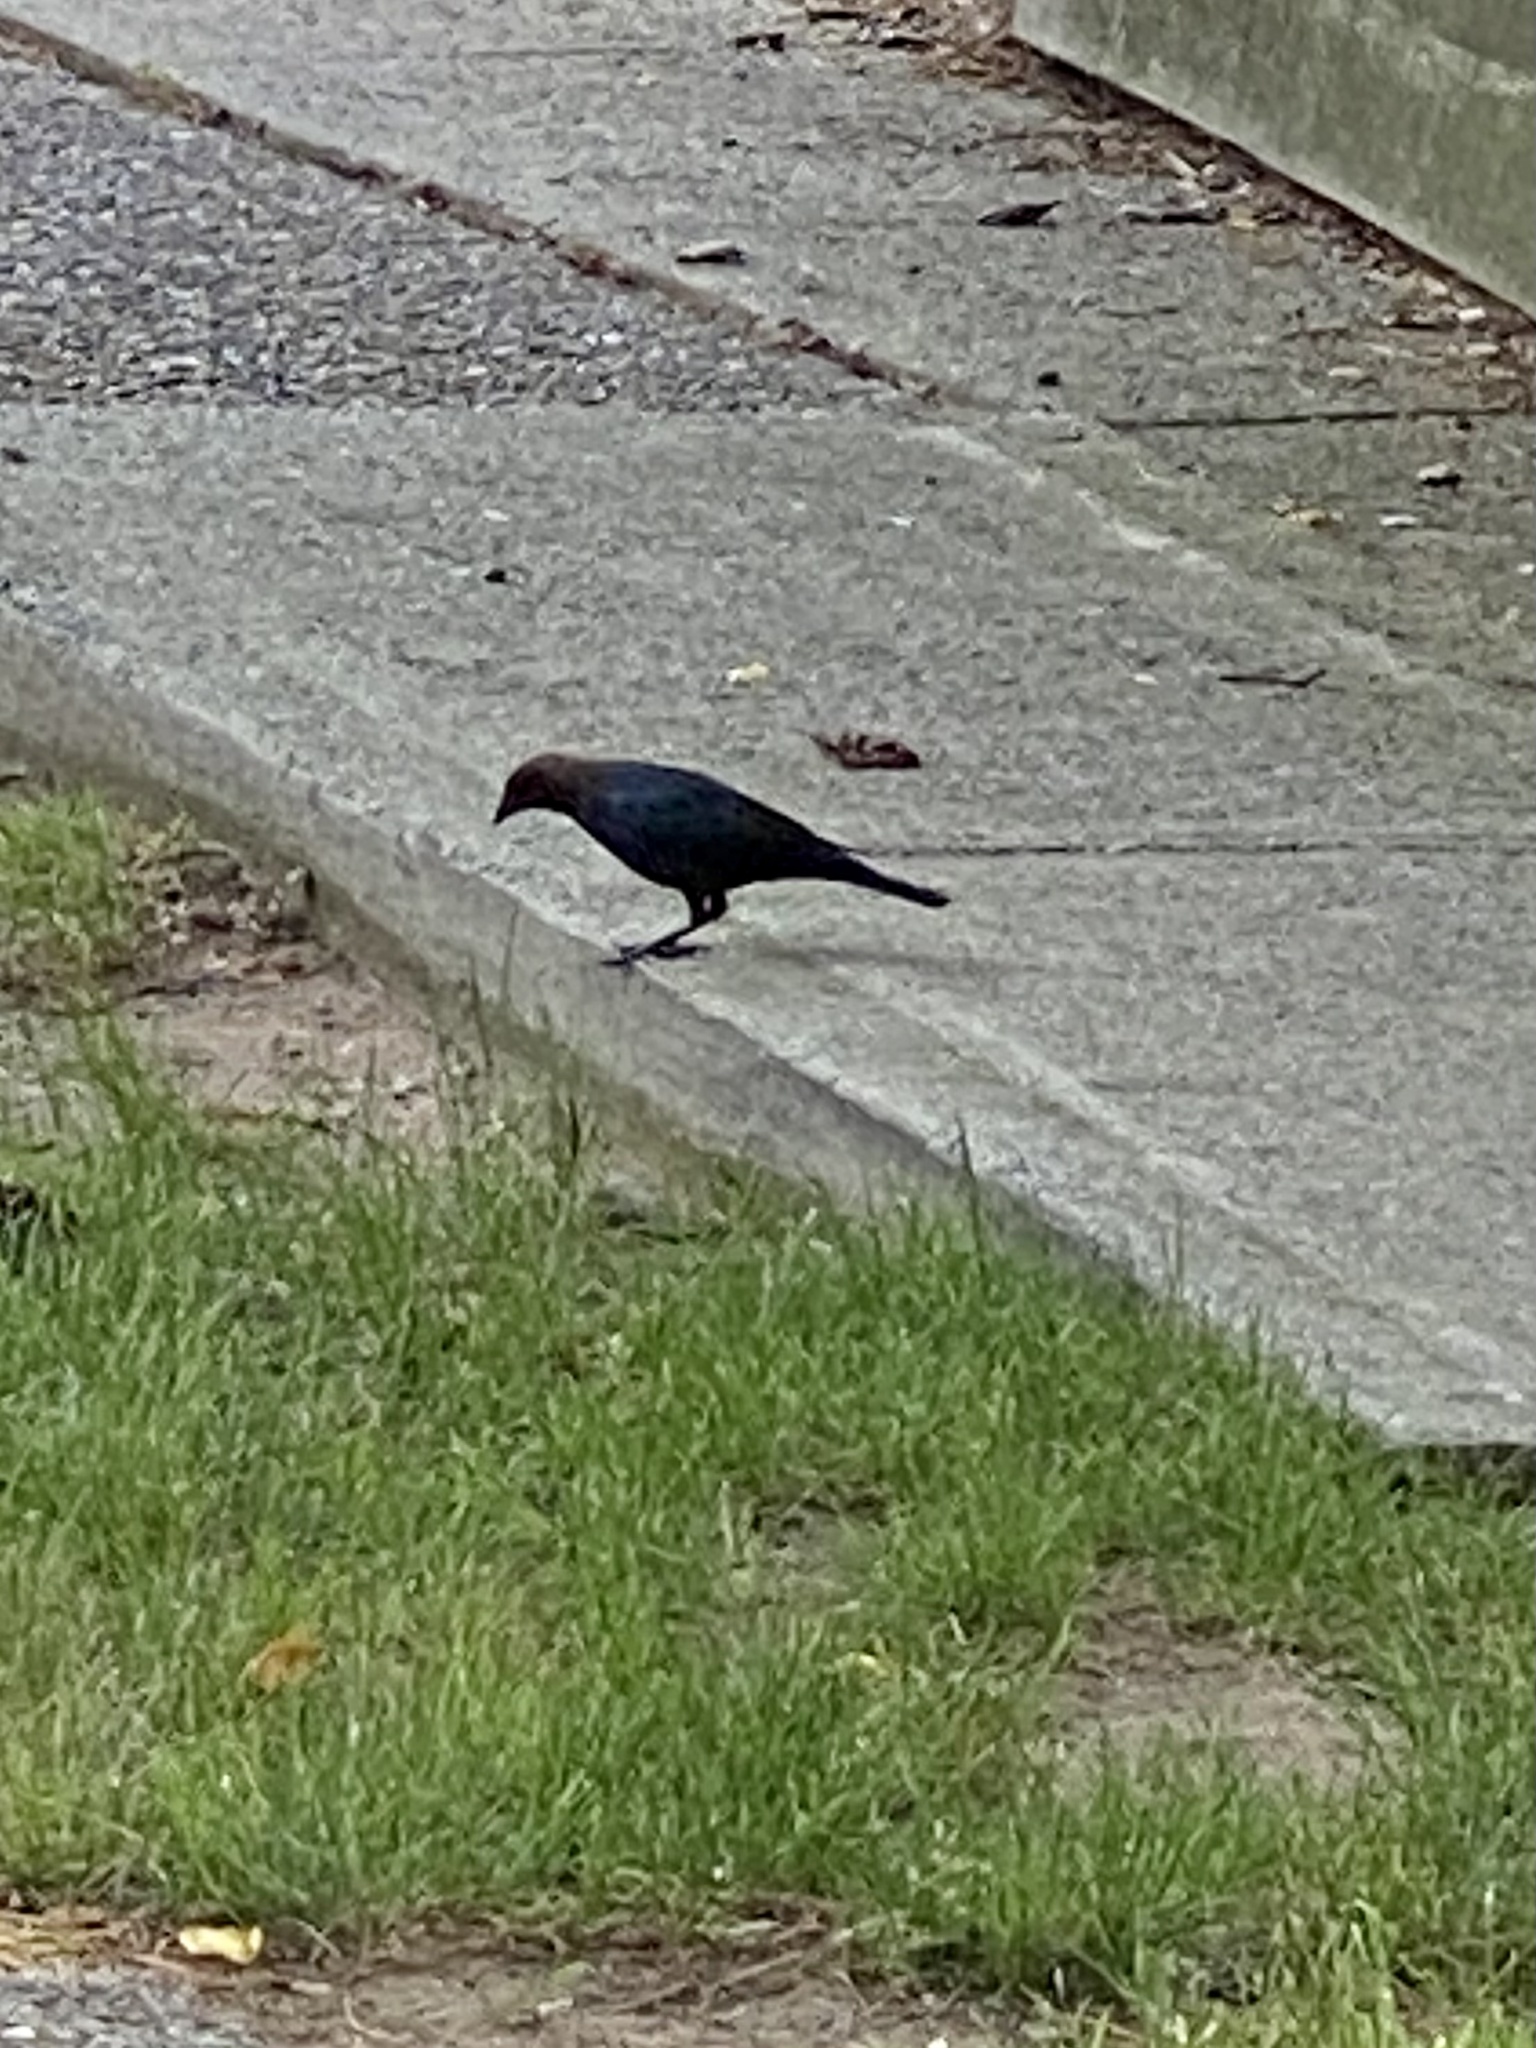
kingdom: Animalia
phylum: Chordata
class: Aves
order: Passeriformes
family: Icteridae
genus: Molothrus
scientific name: Molothrus ater
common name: Brown-headed cowbird
